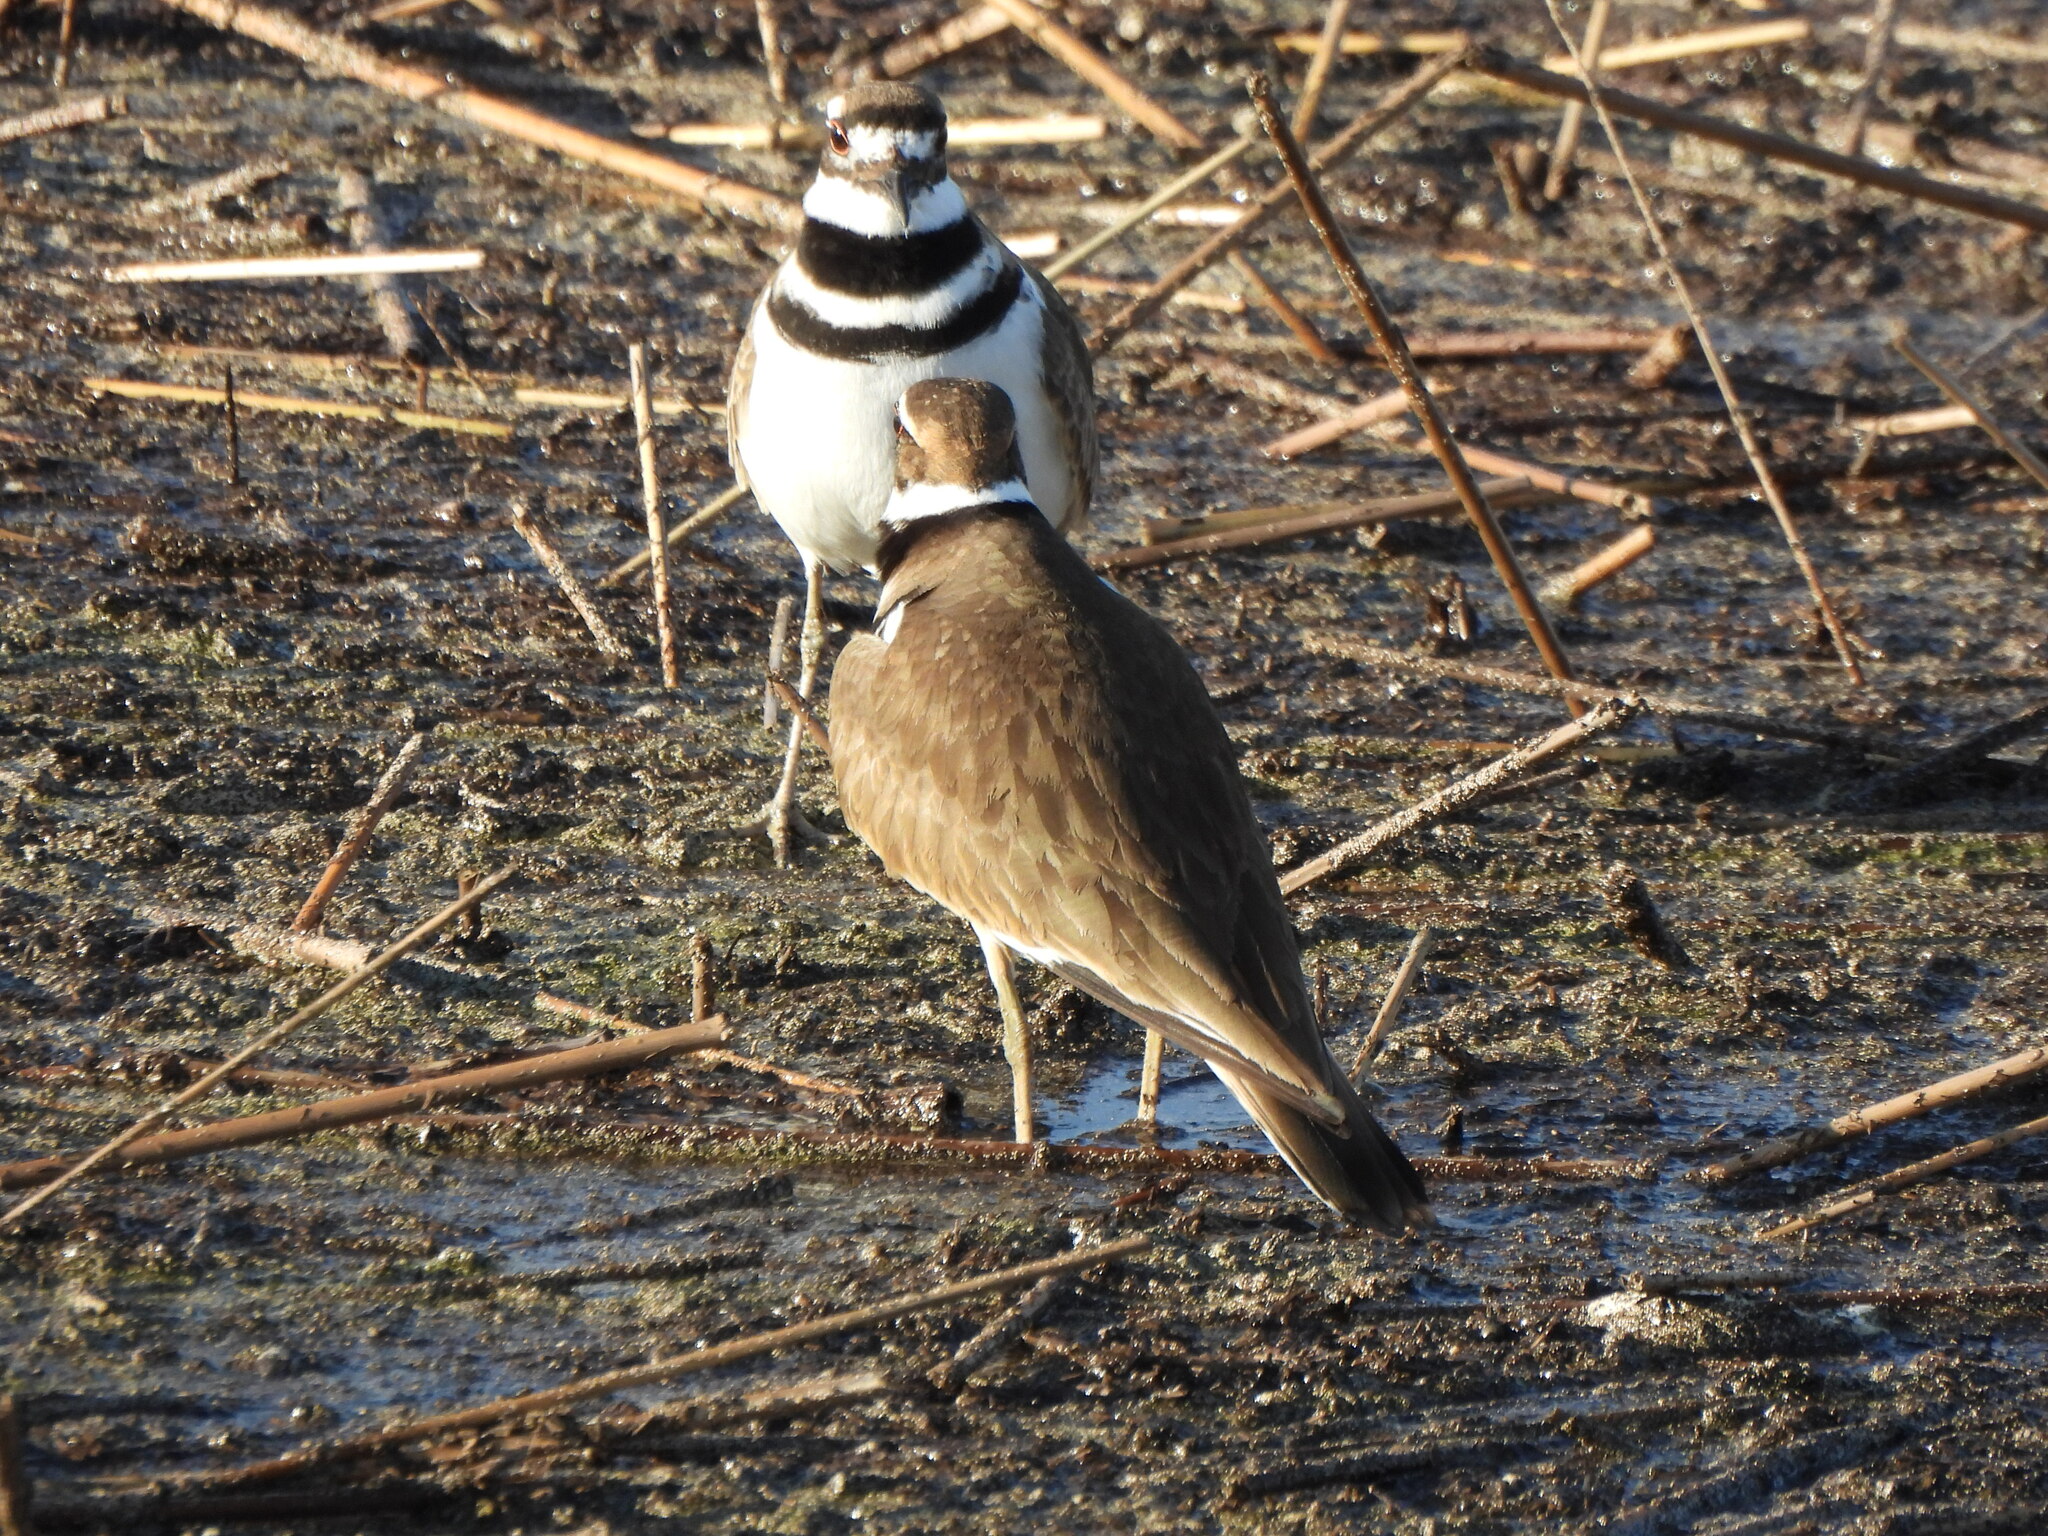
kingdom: Animalia
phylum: Chordata
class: Aves
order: Charadriiformes
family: Charadriidae
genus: Charadrius
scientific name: Charadrius vociferus
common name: Killdeer
